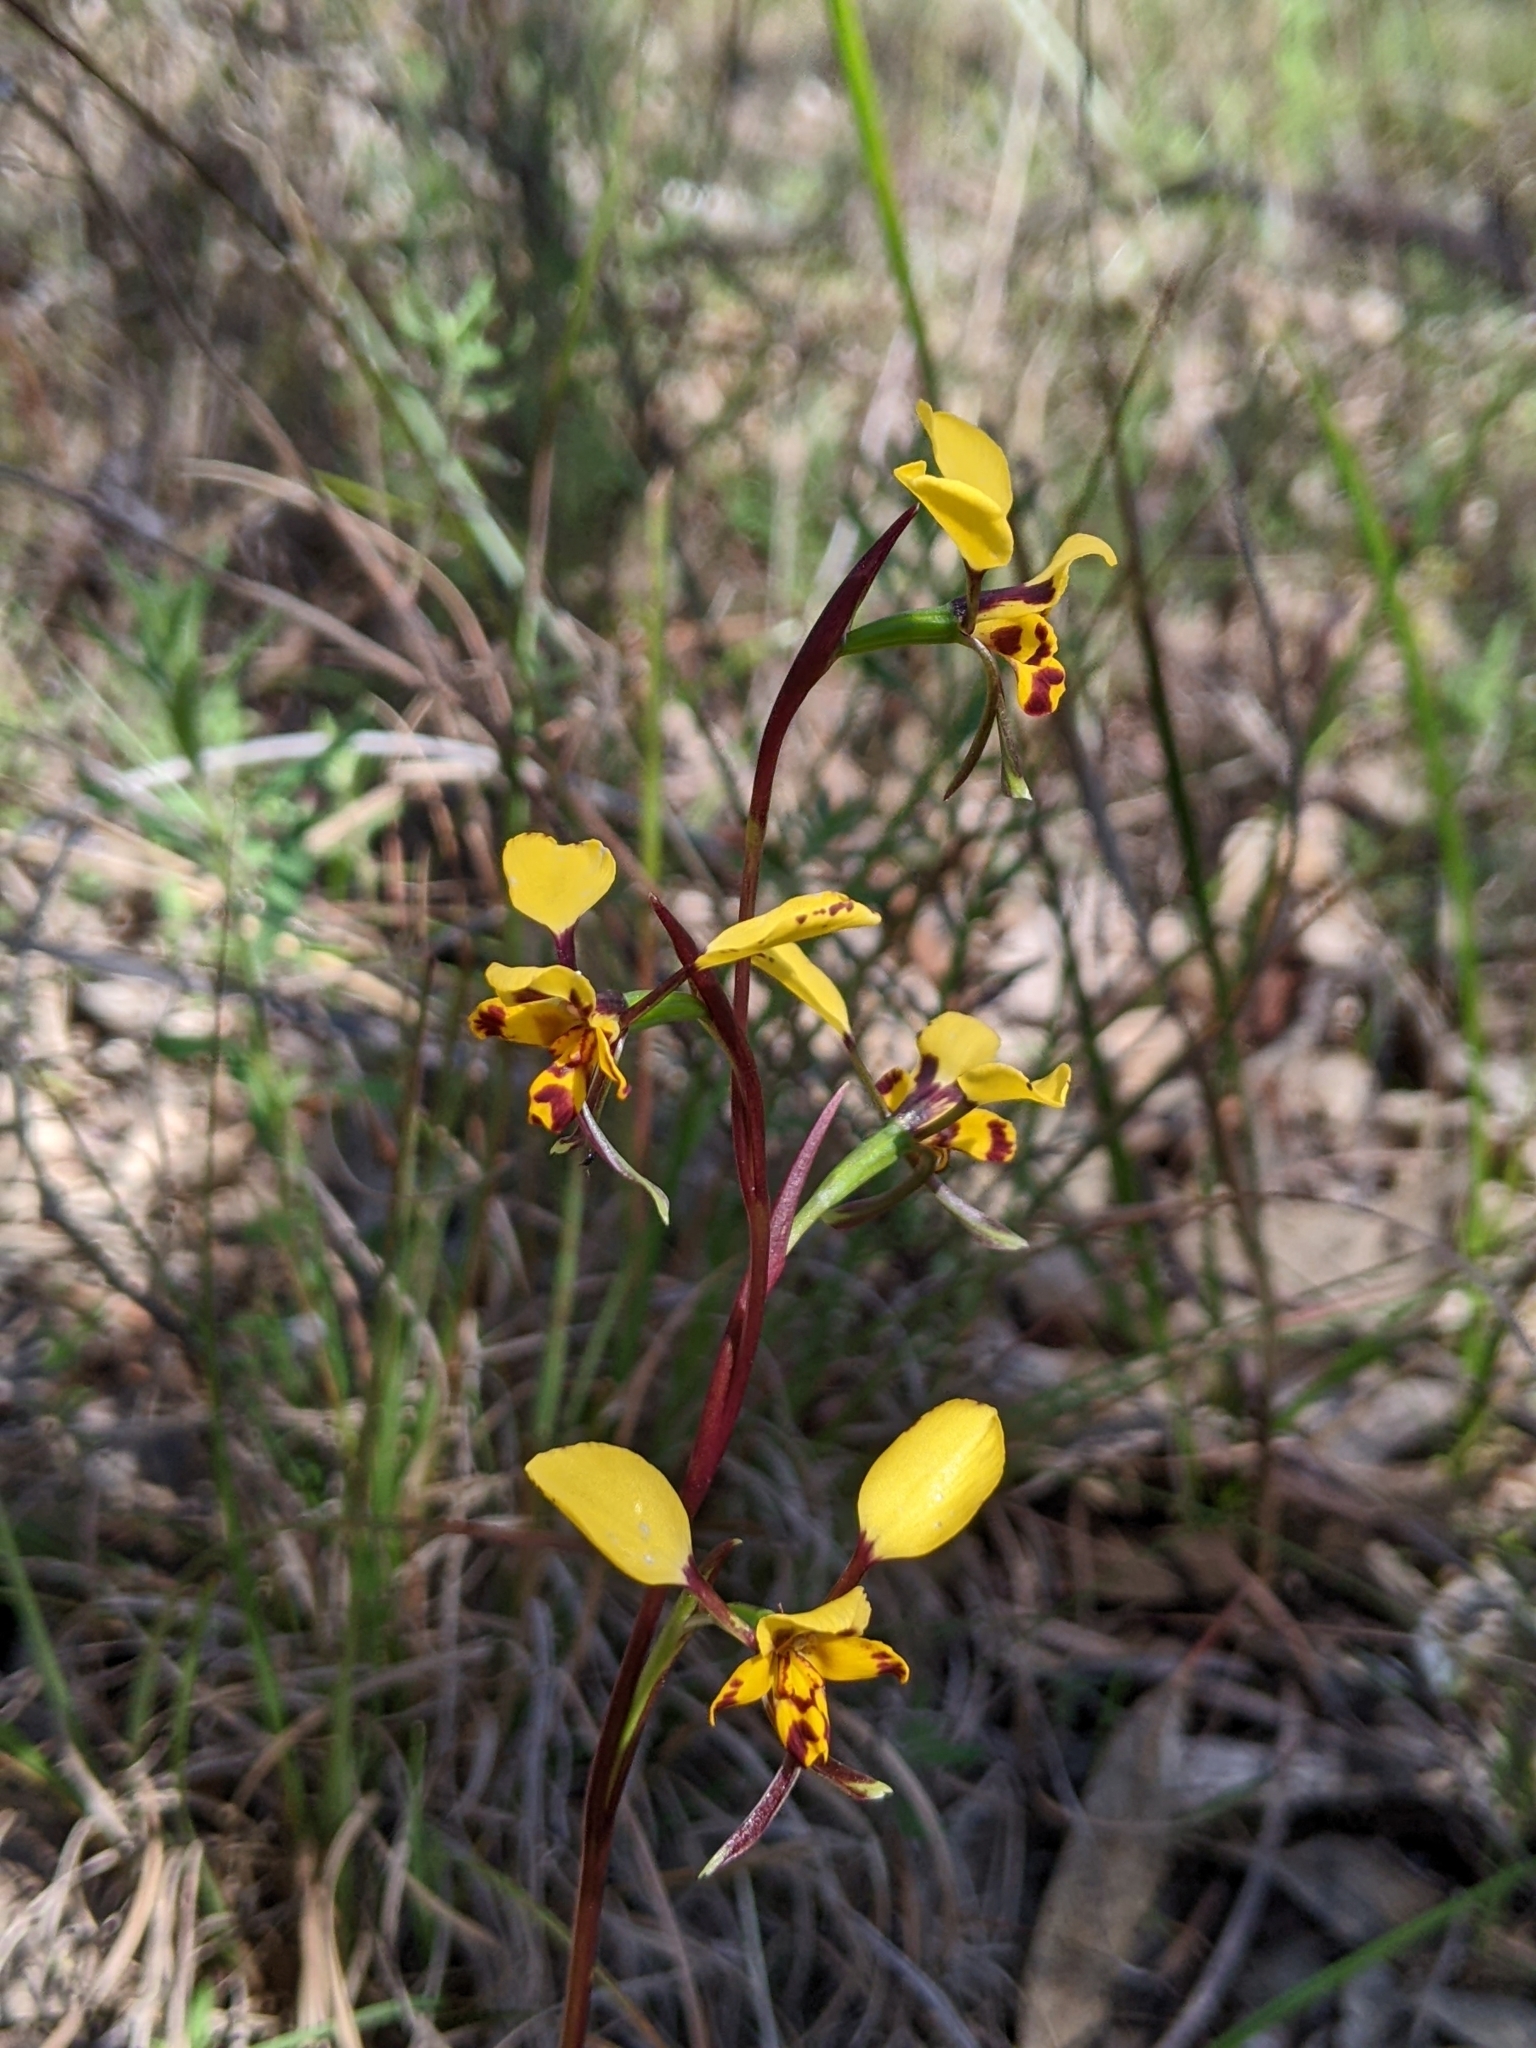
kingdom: Plantae
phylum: Tracheophyta
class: Liliopsida
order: Asparagales
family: Orchidaceae
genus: Diuris
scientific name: Diuris pardina
